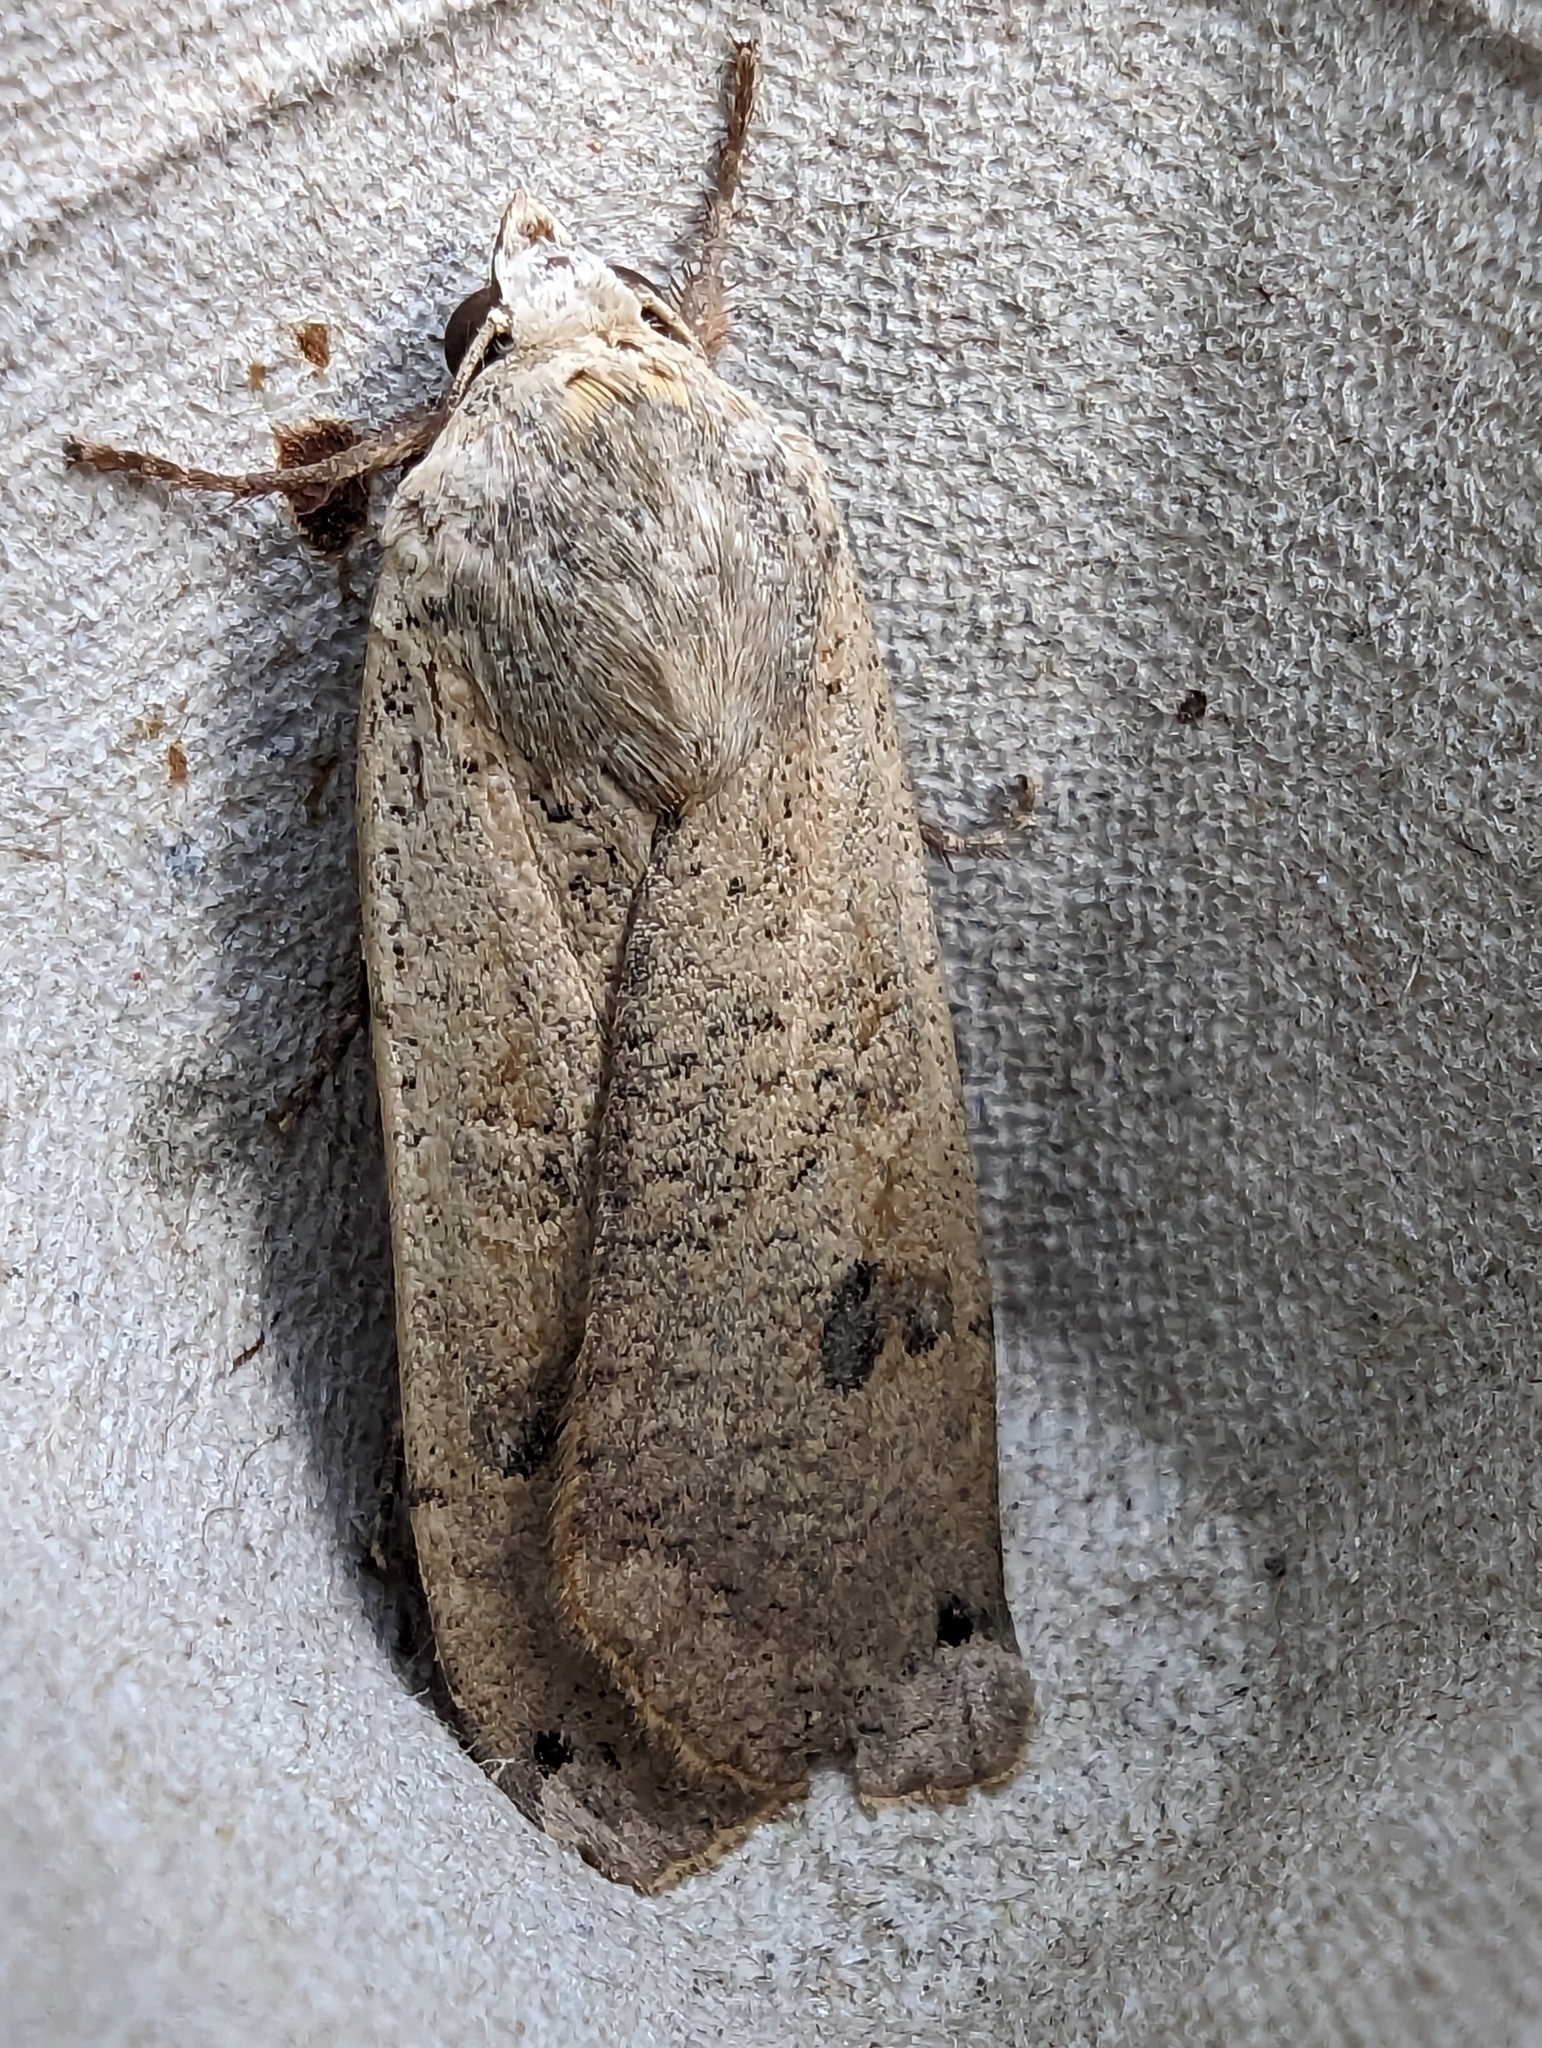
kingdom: Animalia
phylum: Arthropoda
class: Insecta
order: Lepidoptera
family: Noctuidae
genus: Noctua
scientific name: Noctua pronuba
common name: Large yellow underwing
